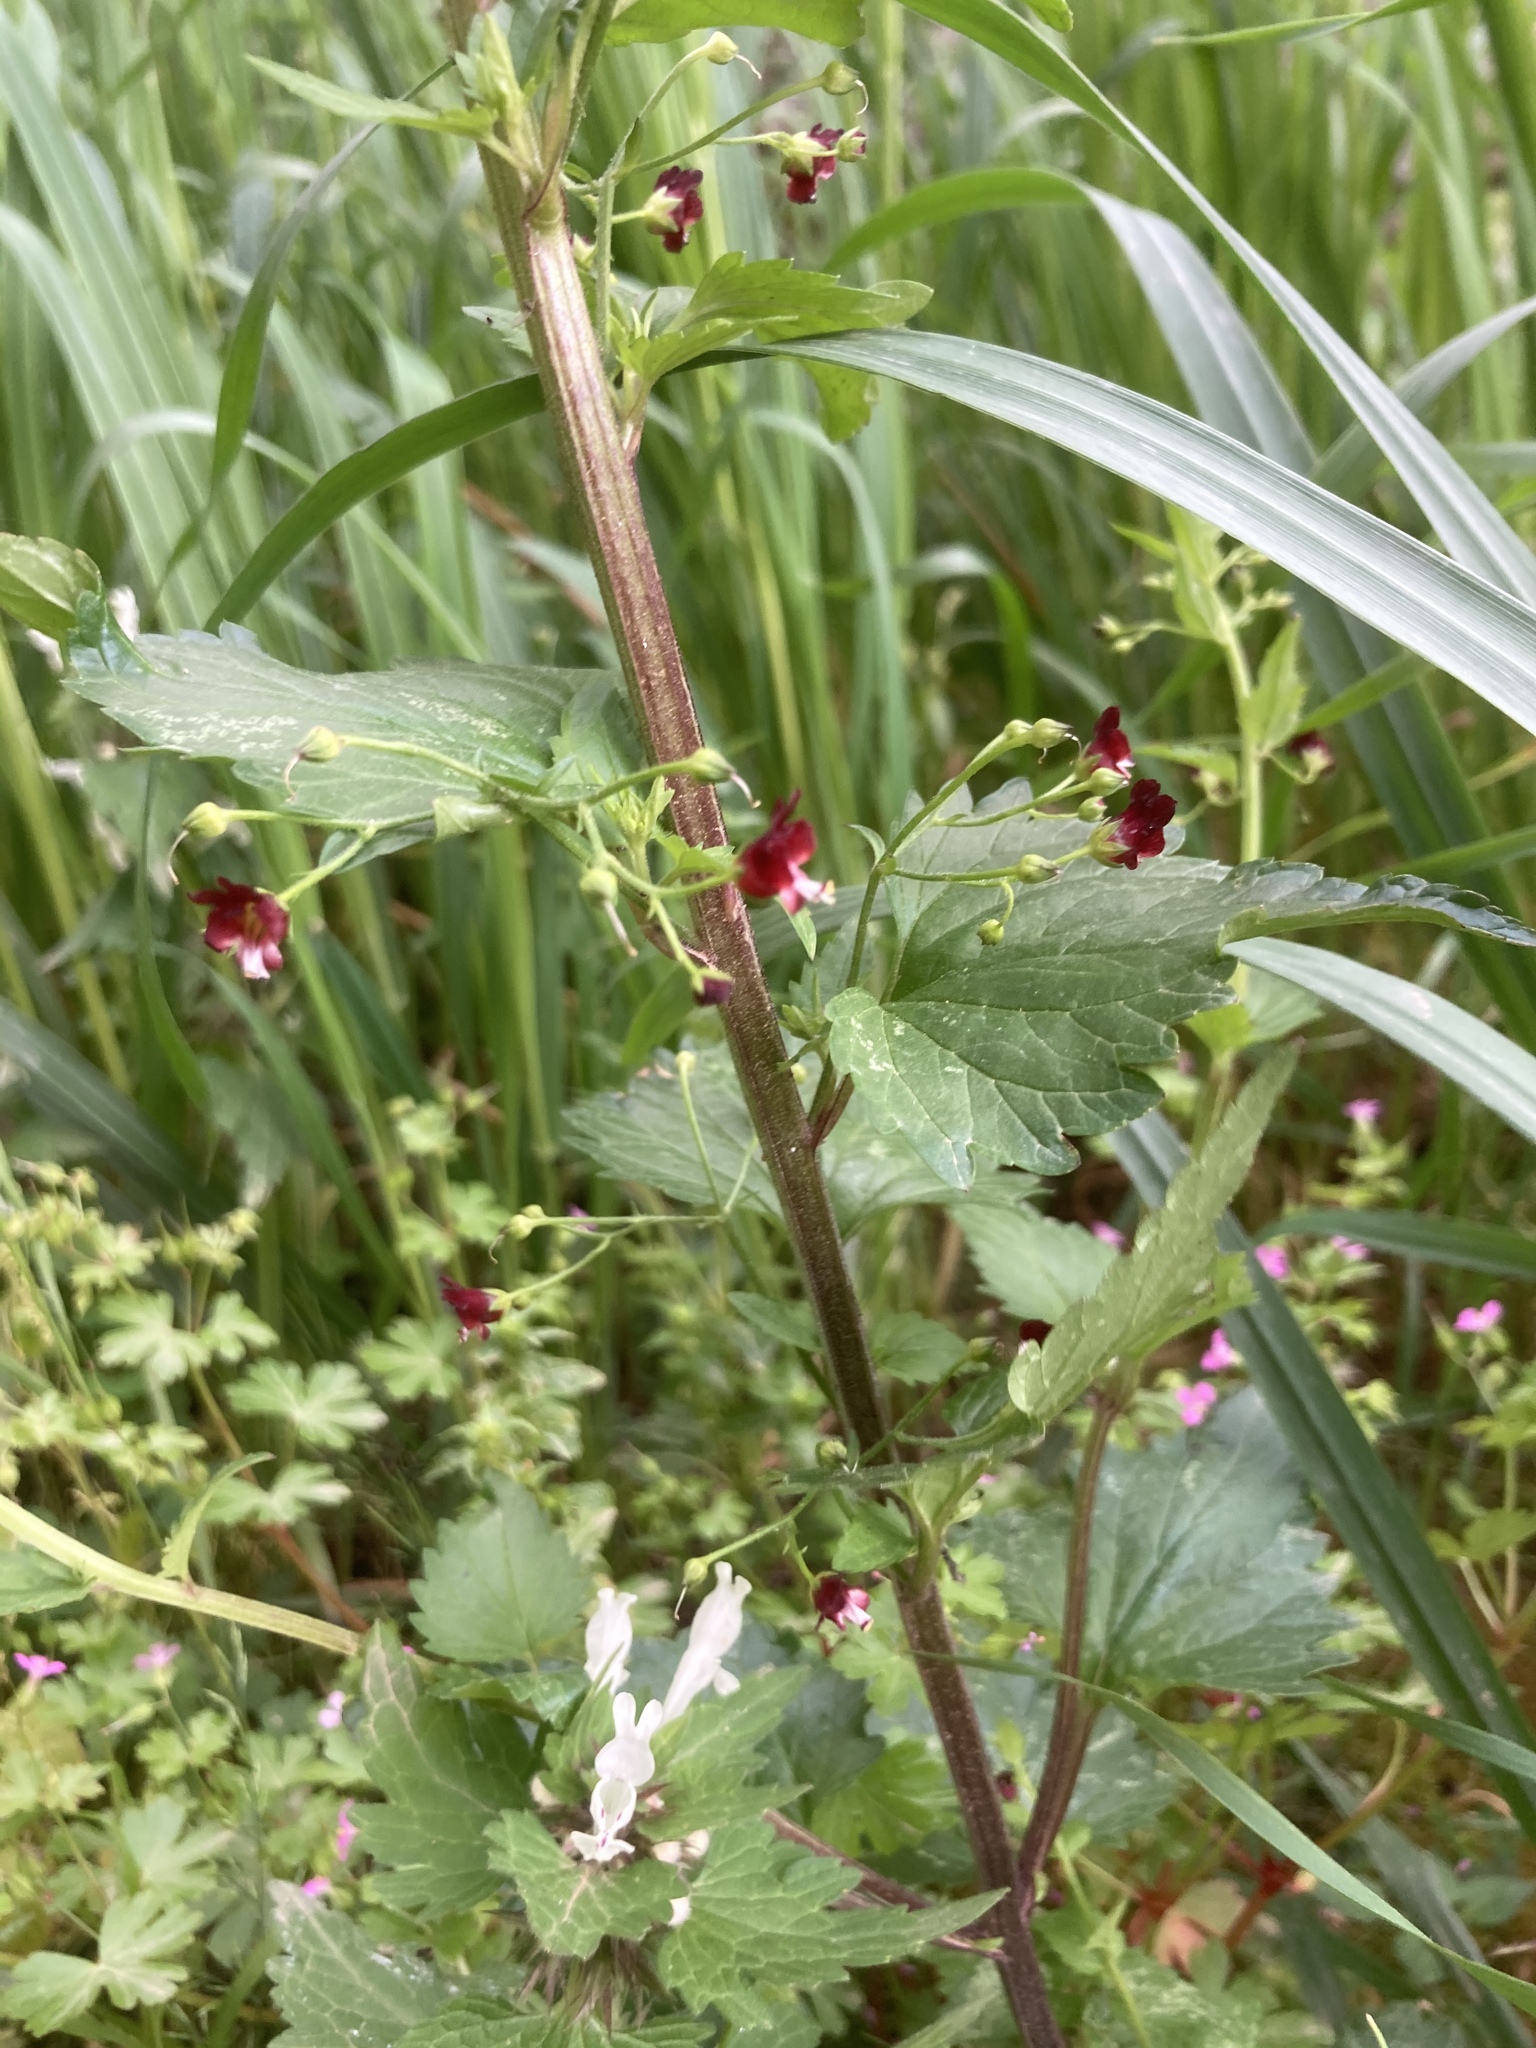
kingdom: Plantae
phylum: Tracheophyta
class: Magnoliopsida
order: Lamiales
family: Lamiaceae
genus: Lamium
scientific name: Lamium bifidum
